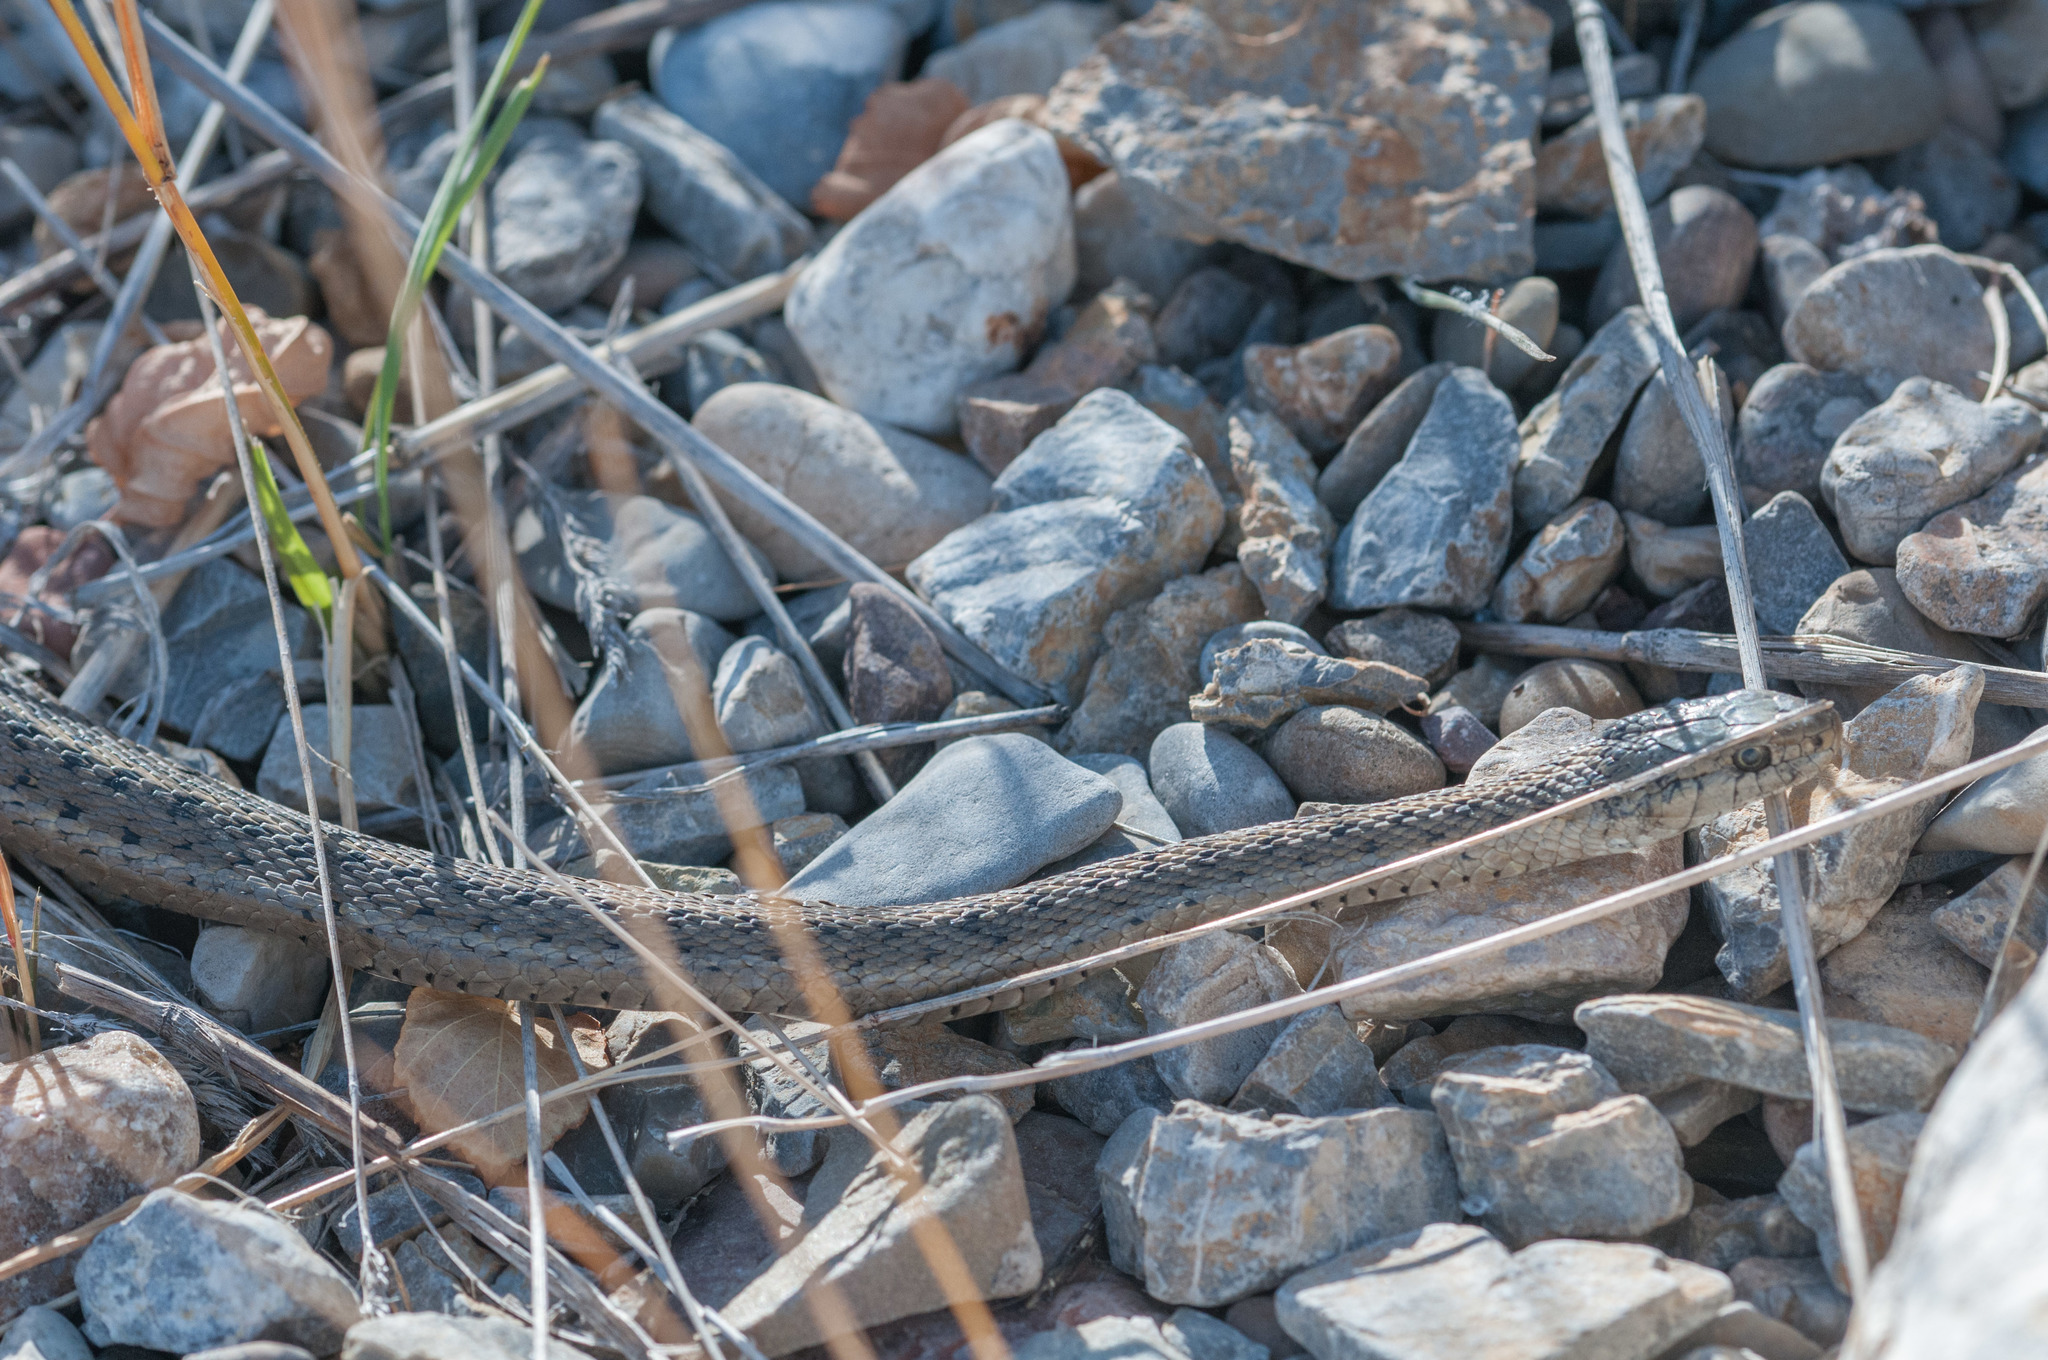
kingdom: Animalia
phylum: Chordata
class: Squamata
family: Colubridae
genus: Thamnophis
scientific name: Thamnophis elegans
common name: Western terrestrial garter snake
